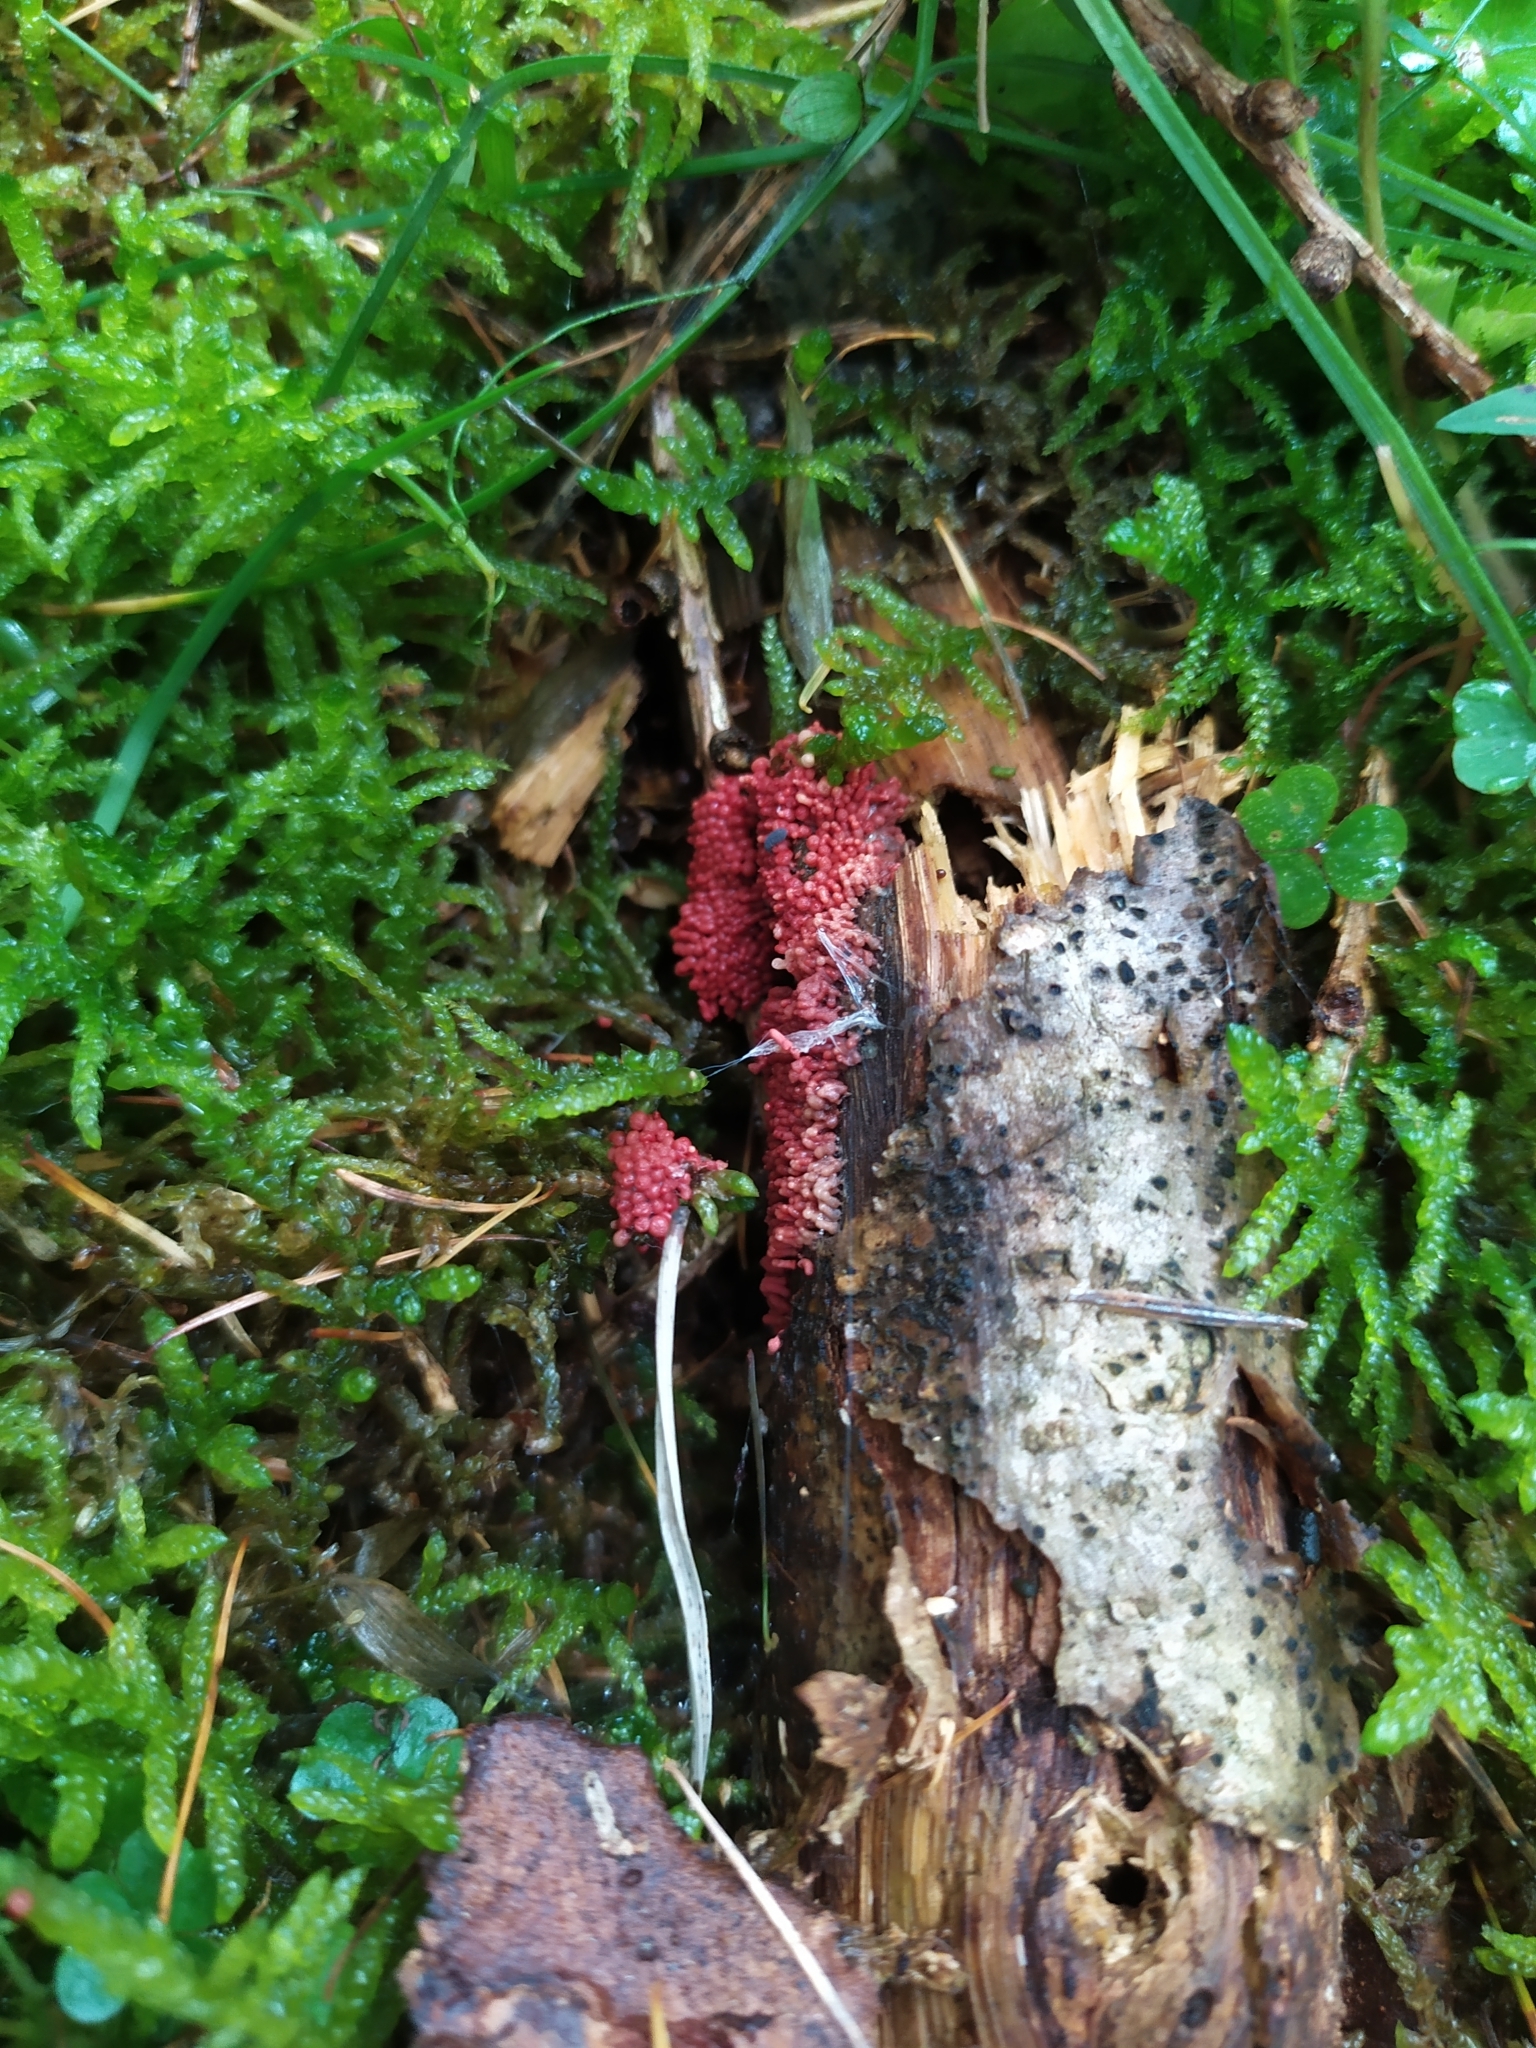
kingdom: Protozoa
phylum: Mycetozoa
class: Myxomycetes
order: Cribrariales
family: Tubiferaceae
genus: Lycogala
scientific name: Lycogala conicum
